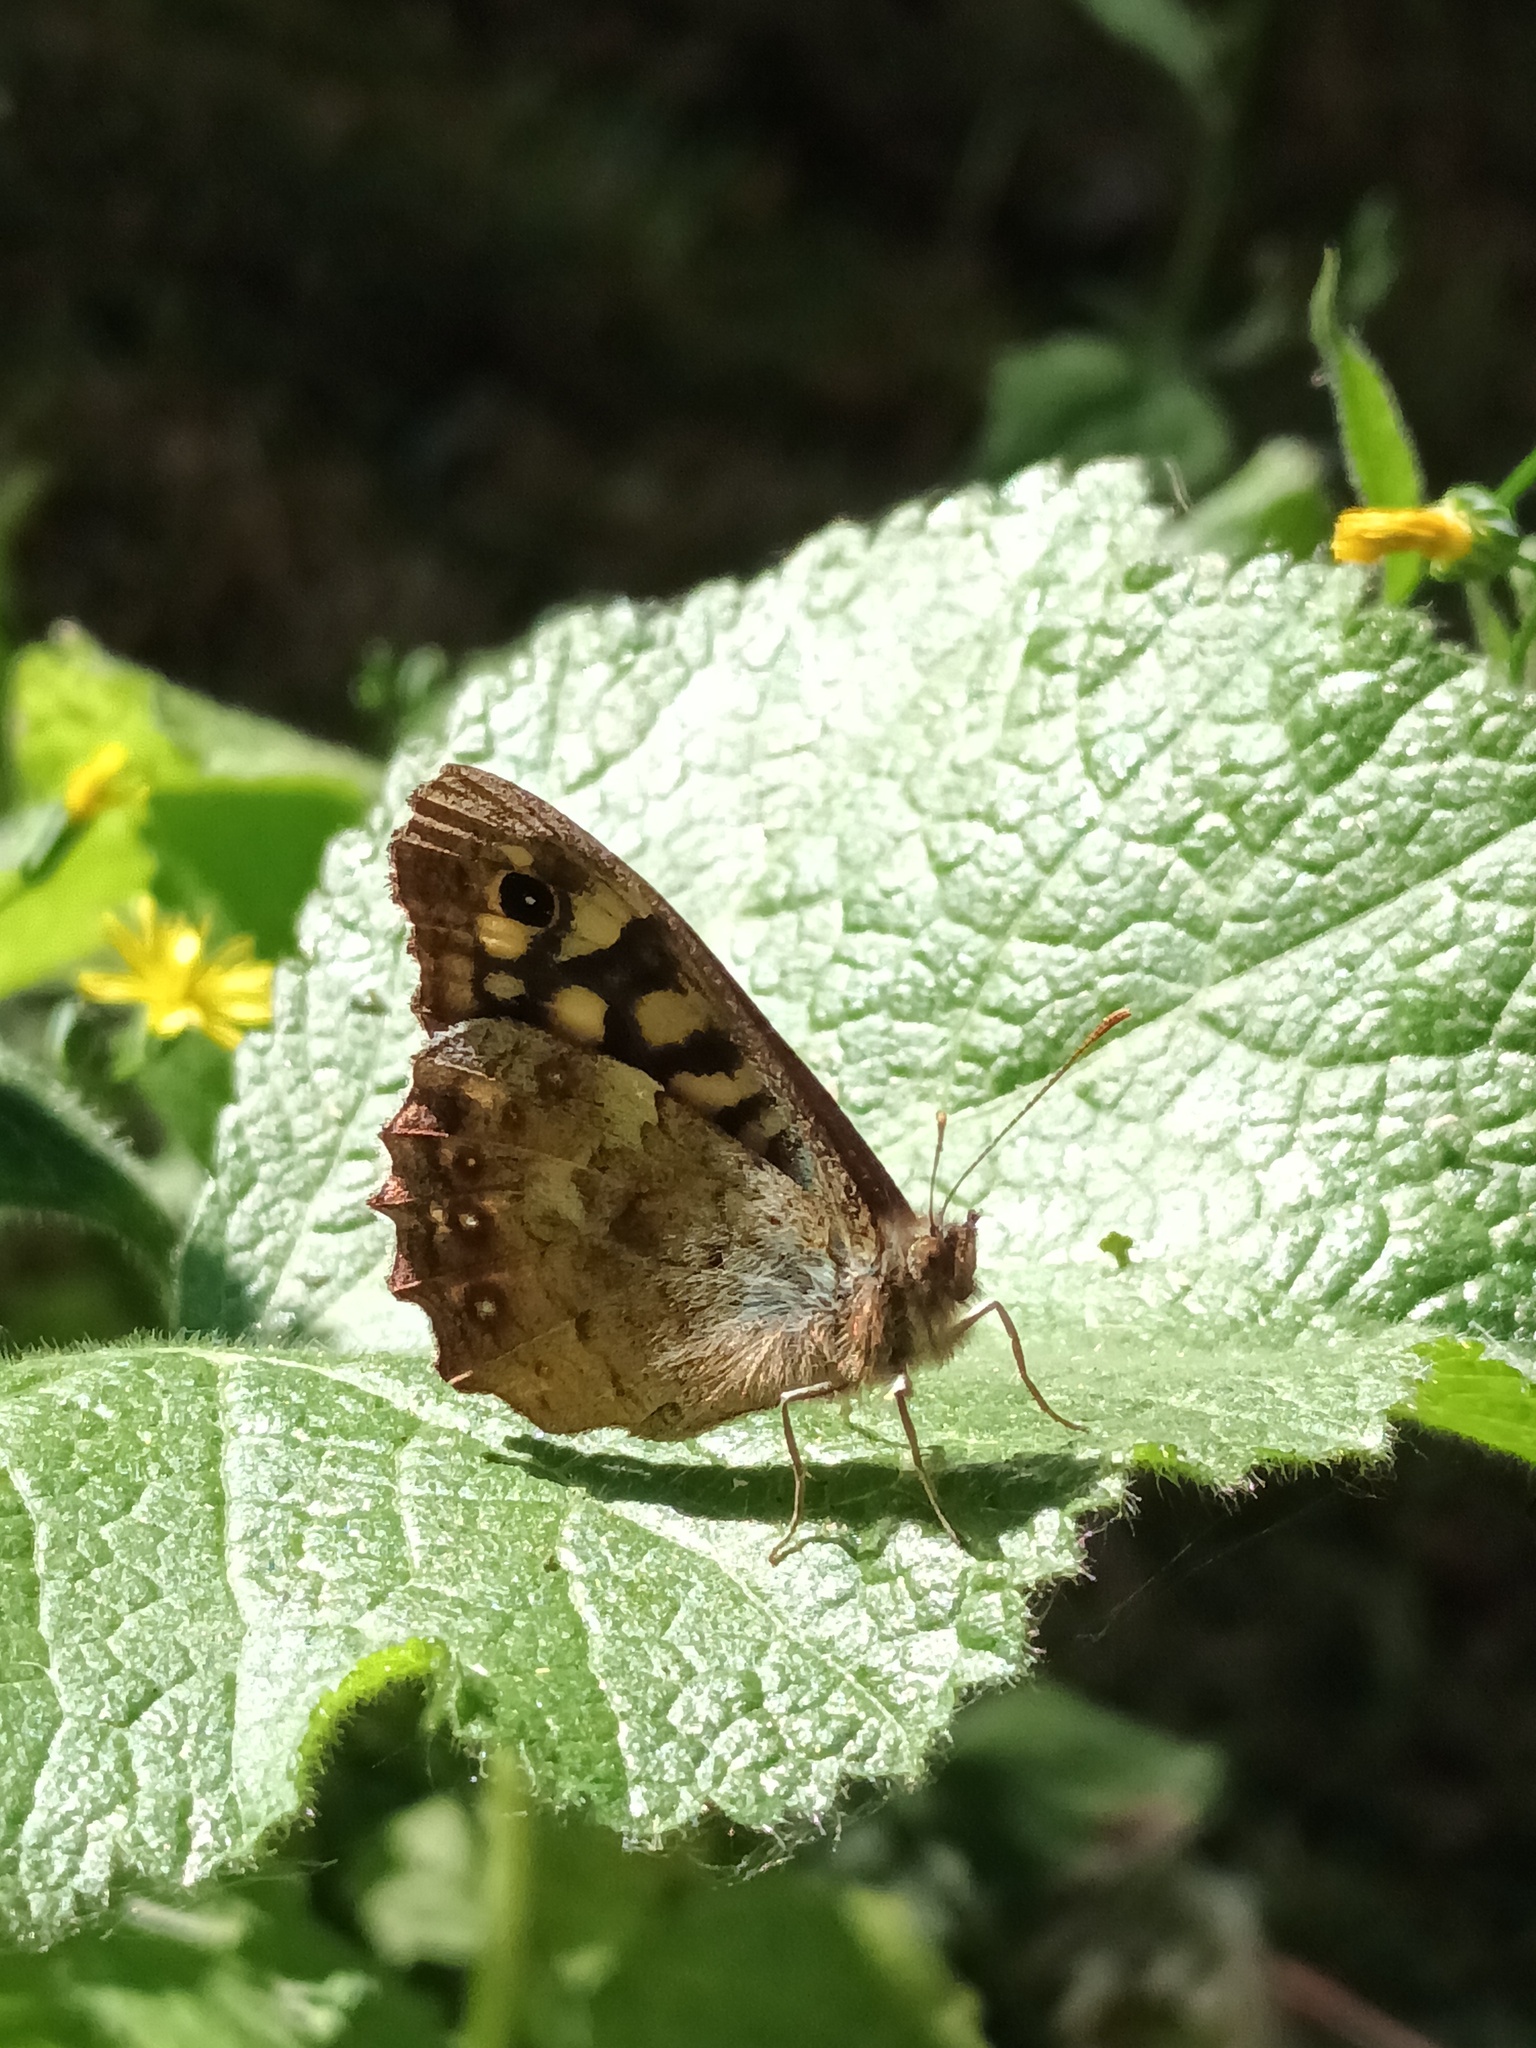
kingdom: Animalia
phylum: Arthropoda
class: Insecta
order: Lepidoptera
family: Nymphalidae
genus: Pararge
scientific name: Pararge aegeria
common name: Speckled wood
